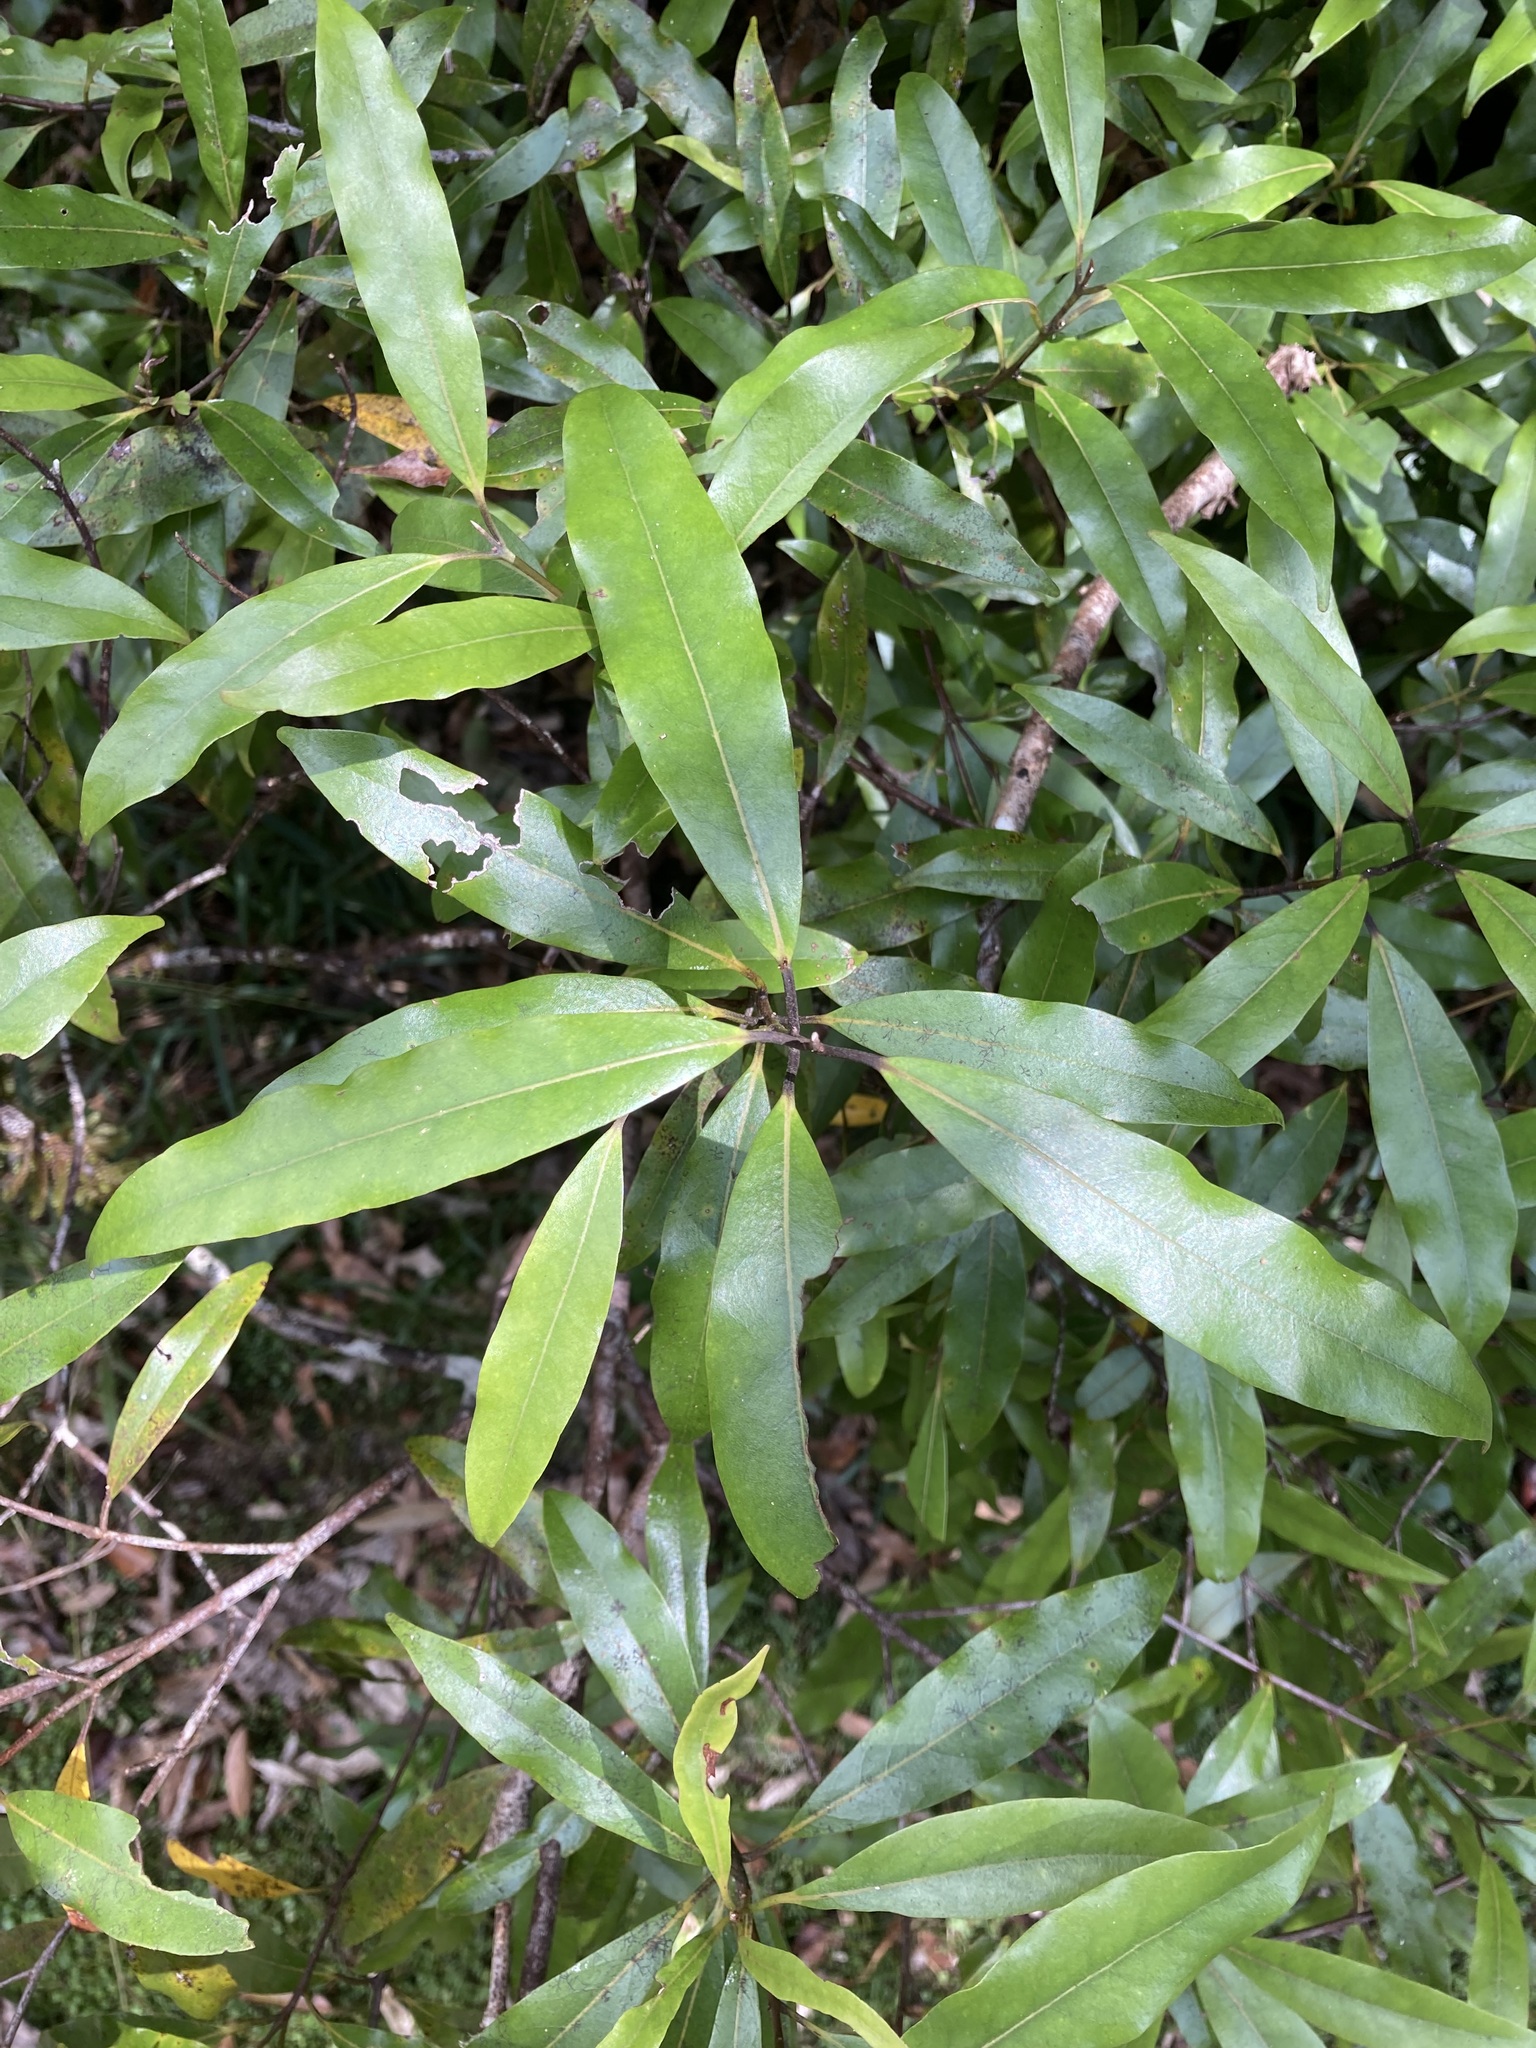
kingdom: Plantae
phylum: Tracheophyta
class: Magnoliopsida
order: Laurales
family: Lauraceae
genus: Beilschmiedia
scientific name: Beilschmiedia tawa
